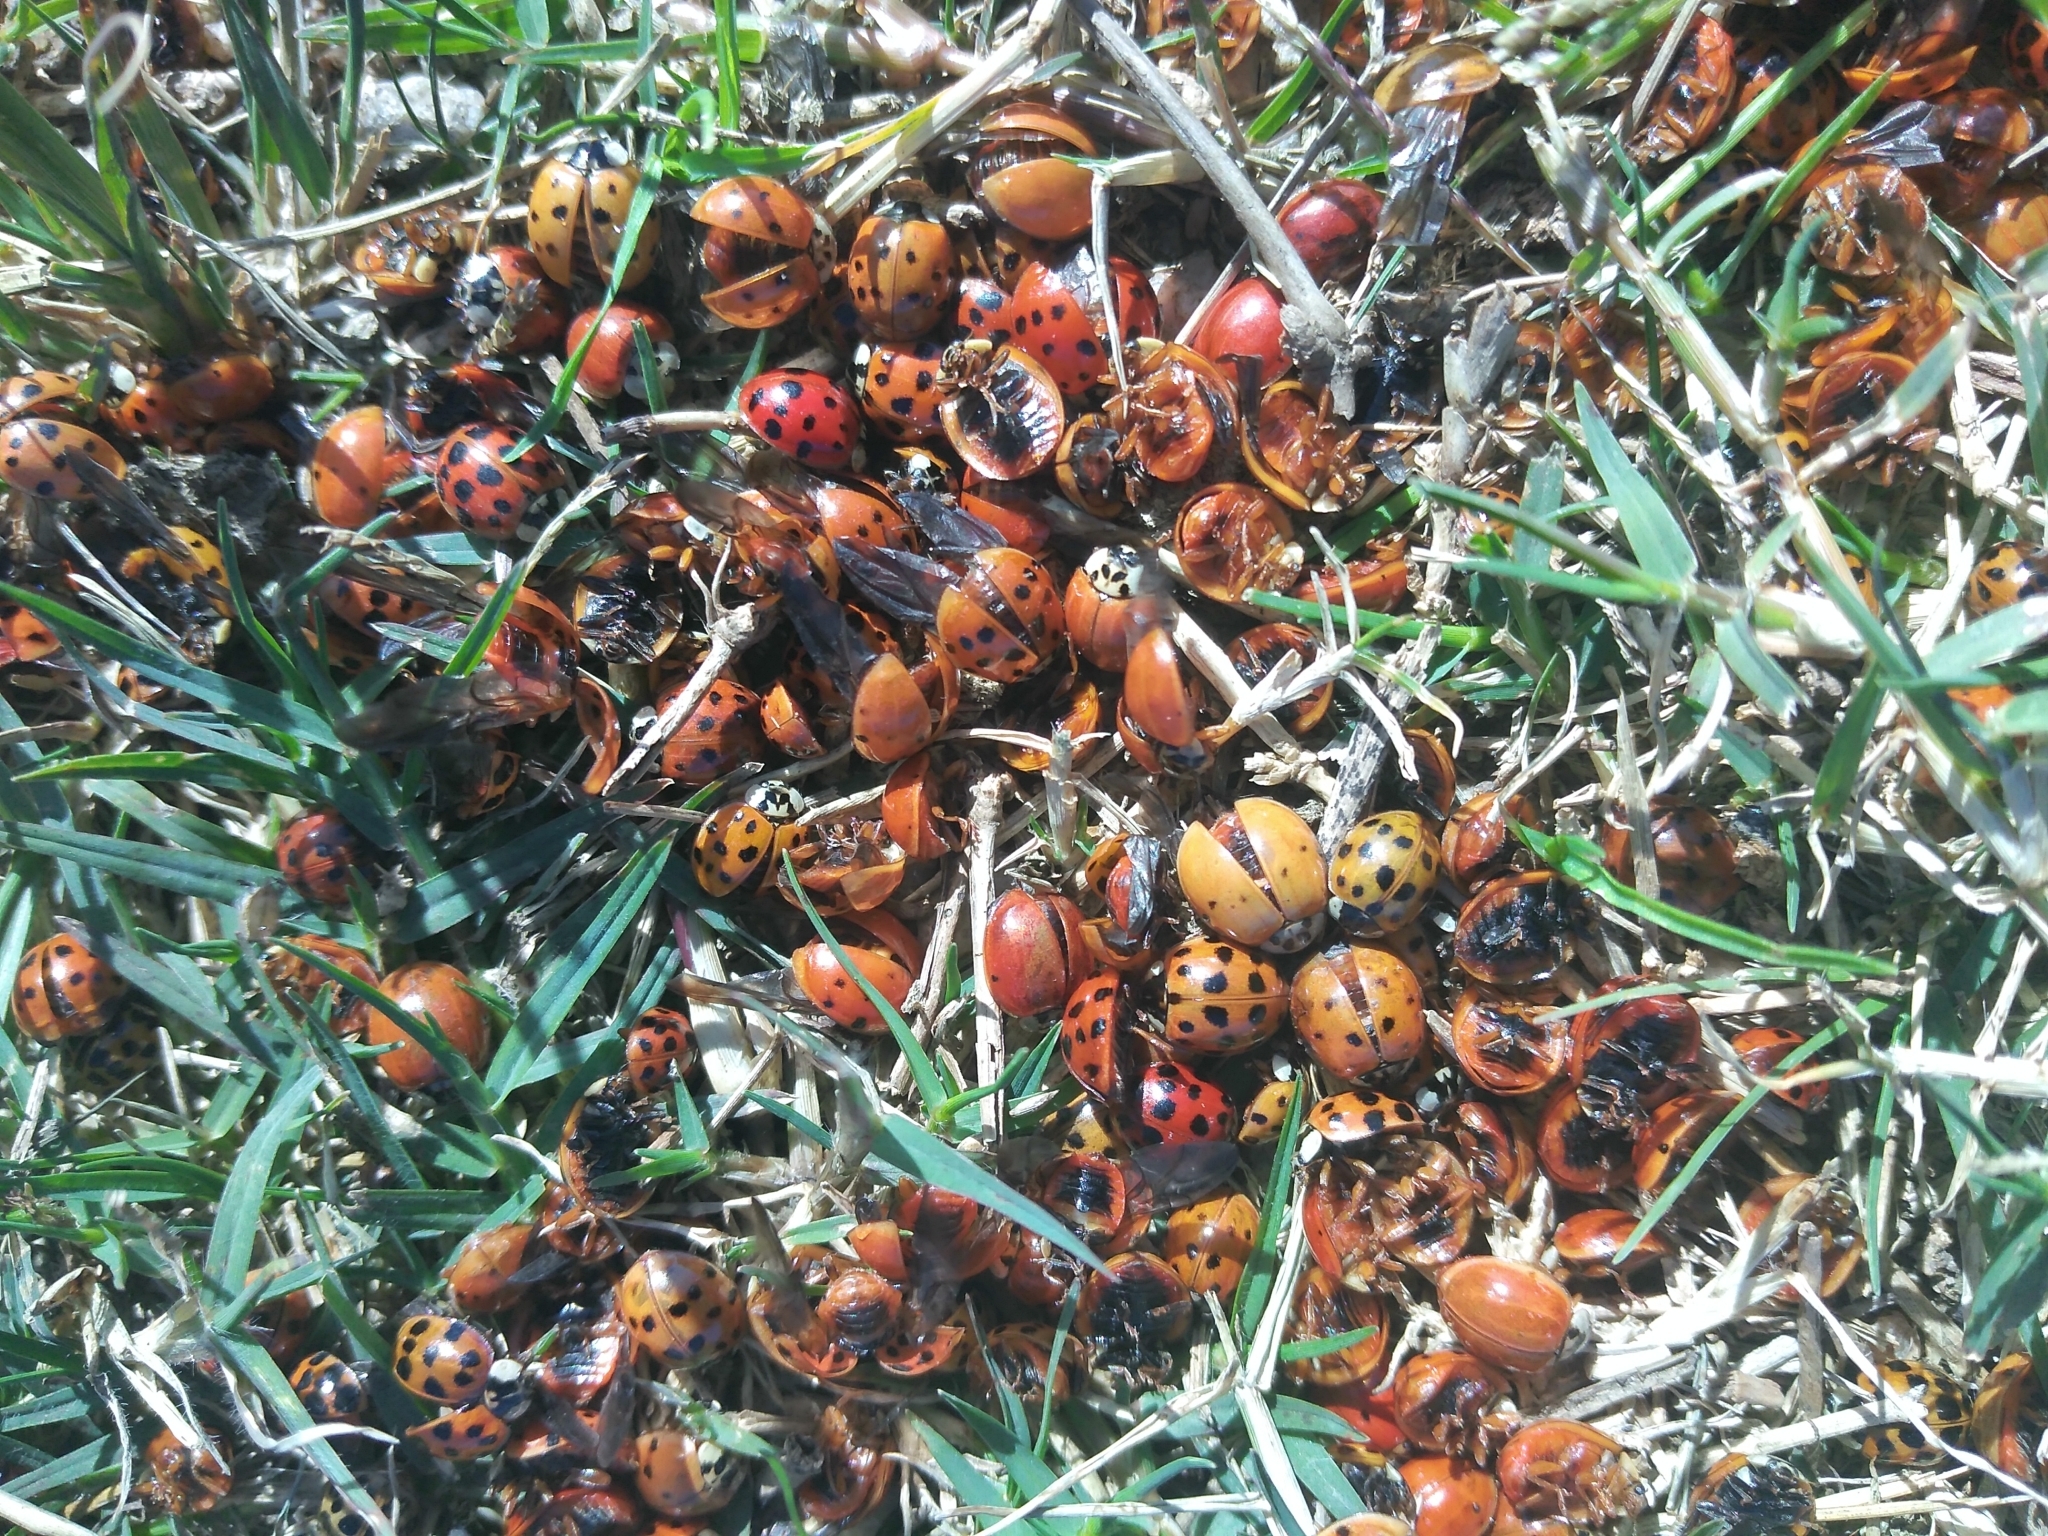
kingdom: Animalia
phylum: Arthropoda
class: Insecta
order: Coleoptera
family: Coccinellidae
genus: Harmonia
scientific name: Harmonia axyridis
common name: Harlequin ladybird
